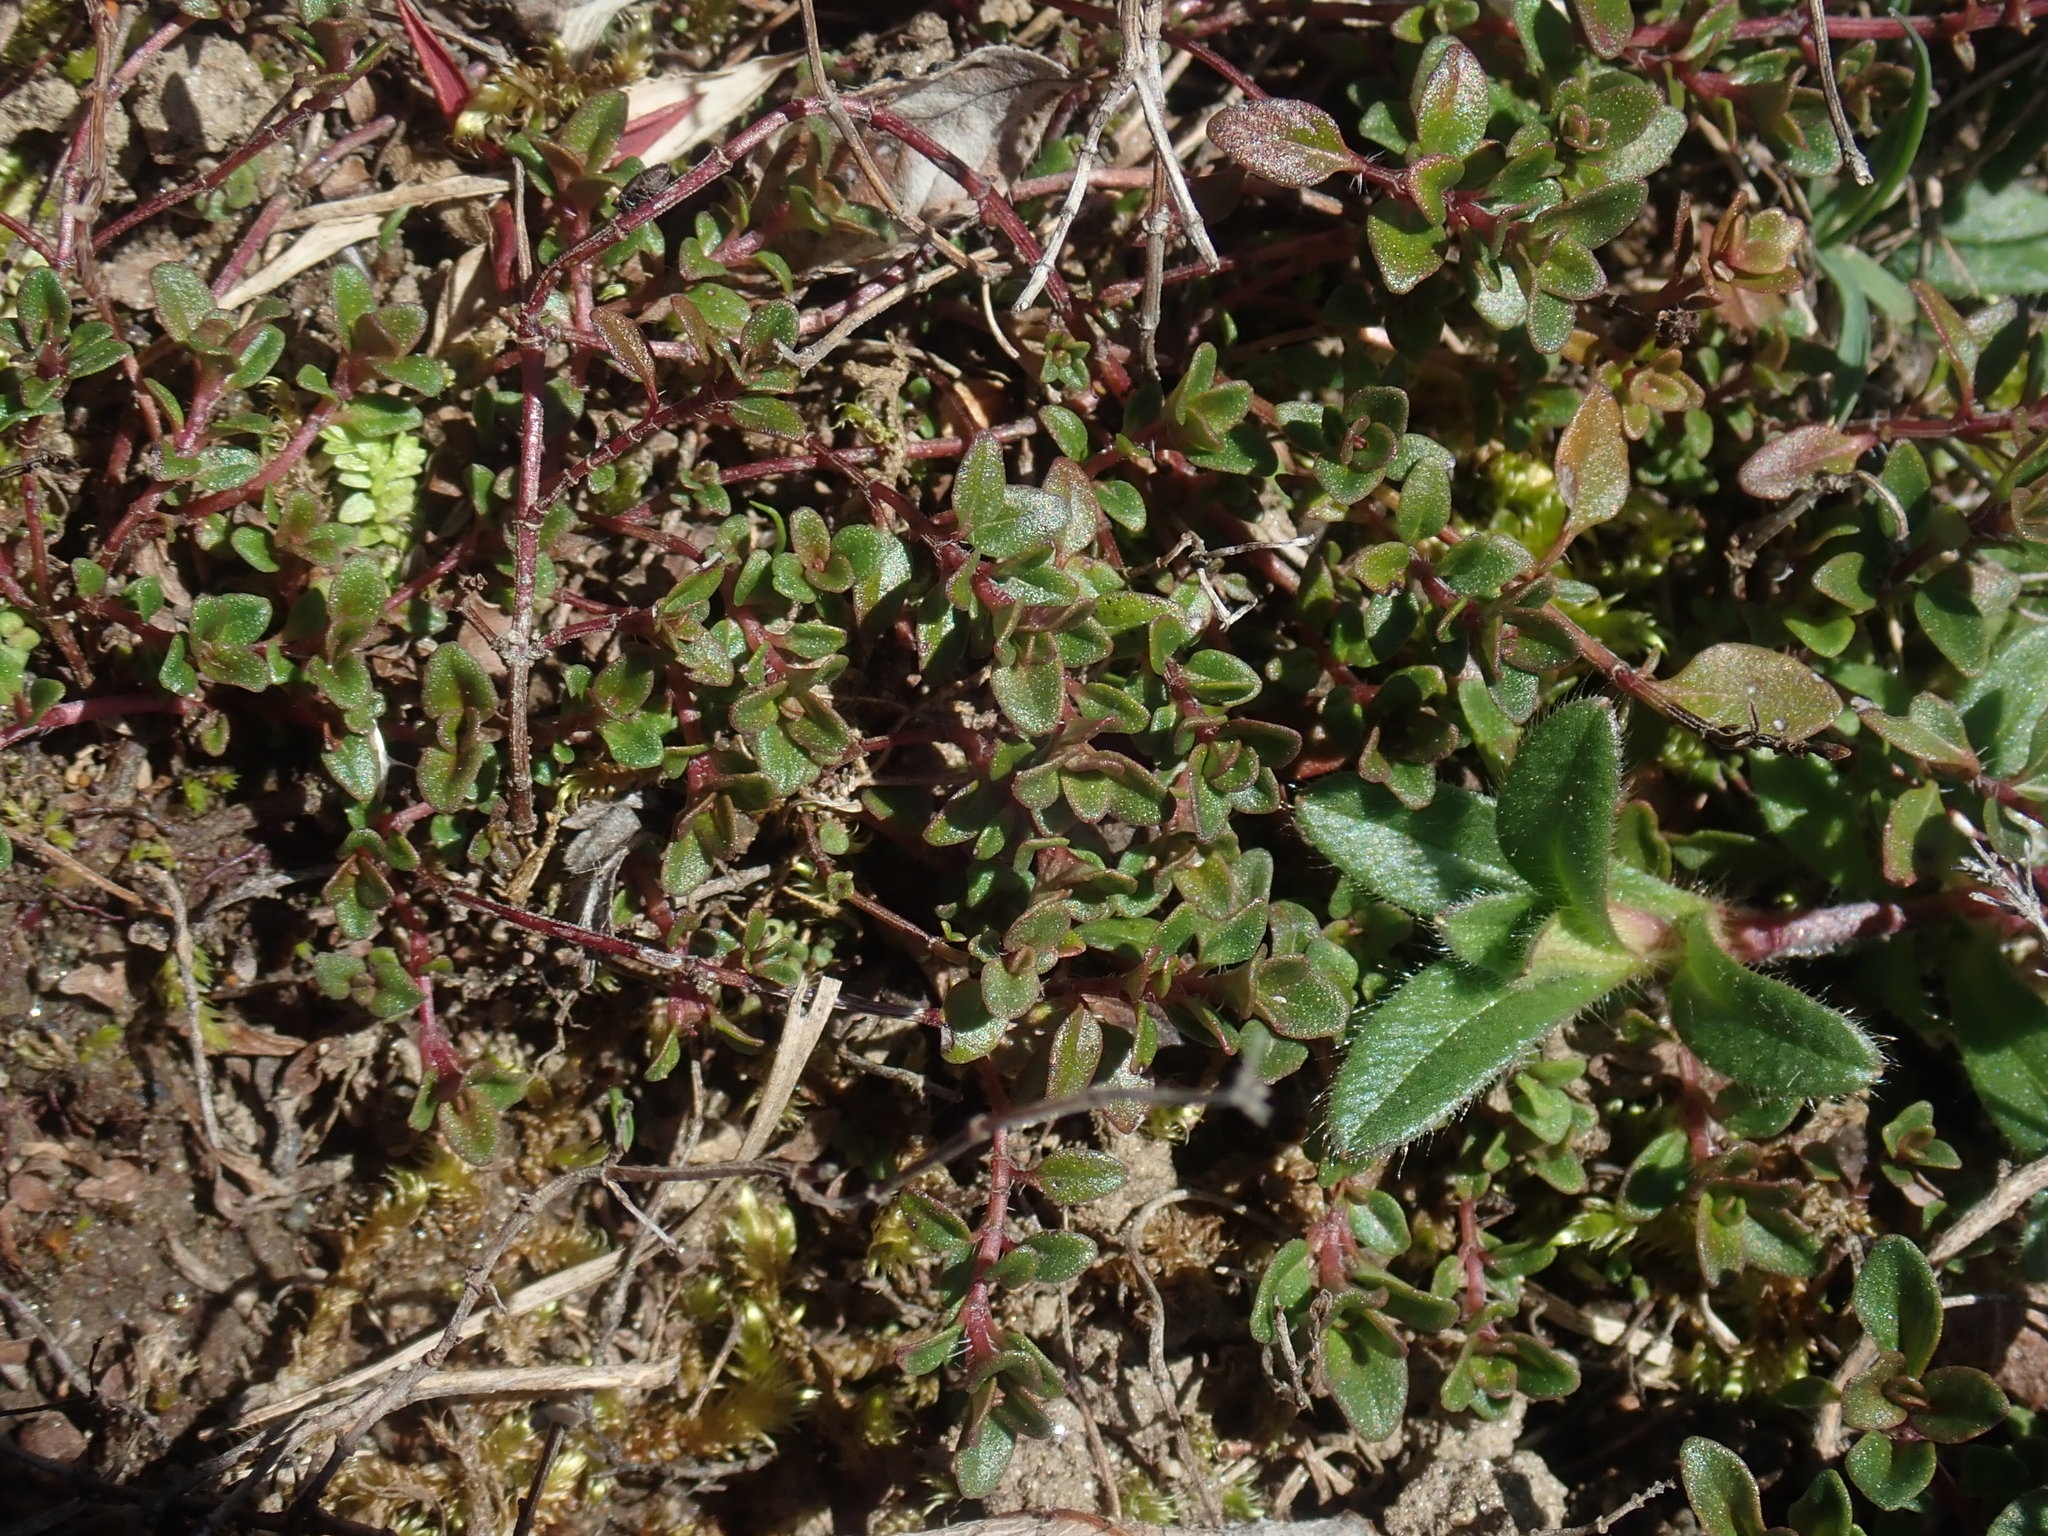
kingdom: Plantae
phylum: Tracheophyta
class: Magnoliopsida
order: Lamiales
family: Lamiaceae
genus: Thymus
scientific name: Thymus pulegioides
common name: Large thyme
